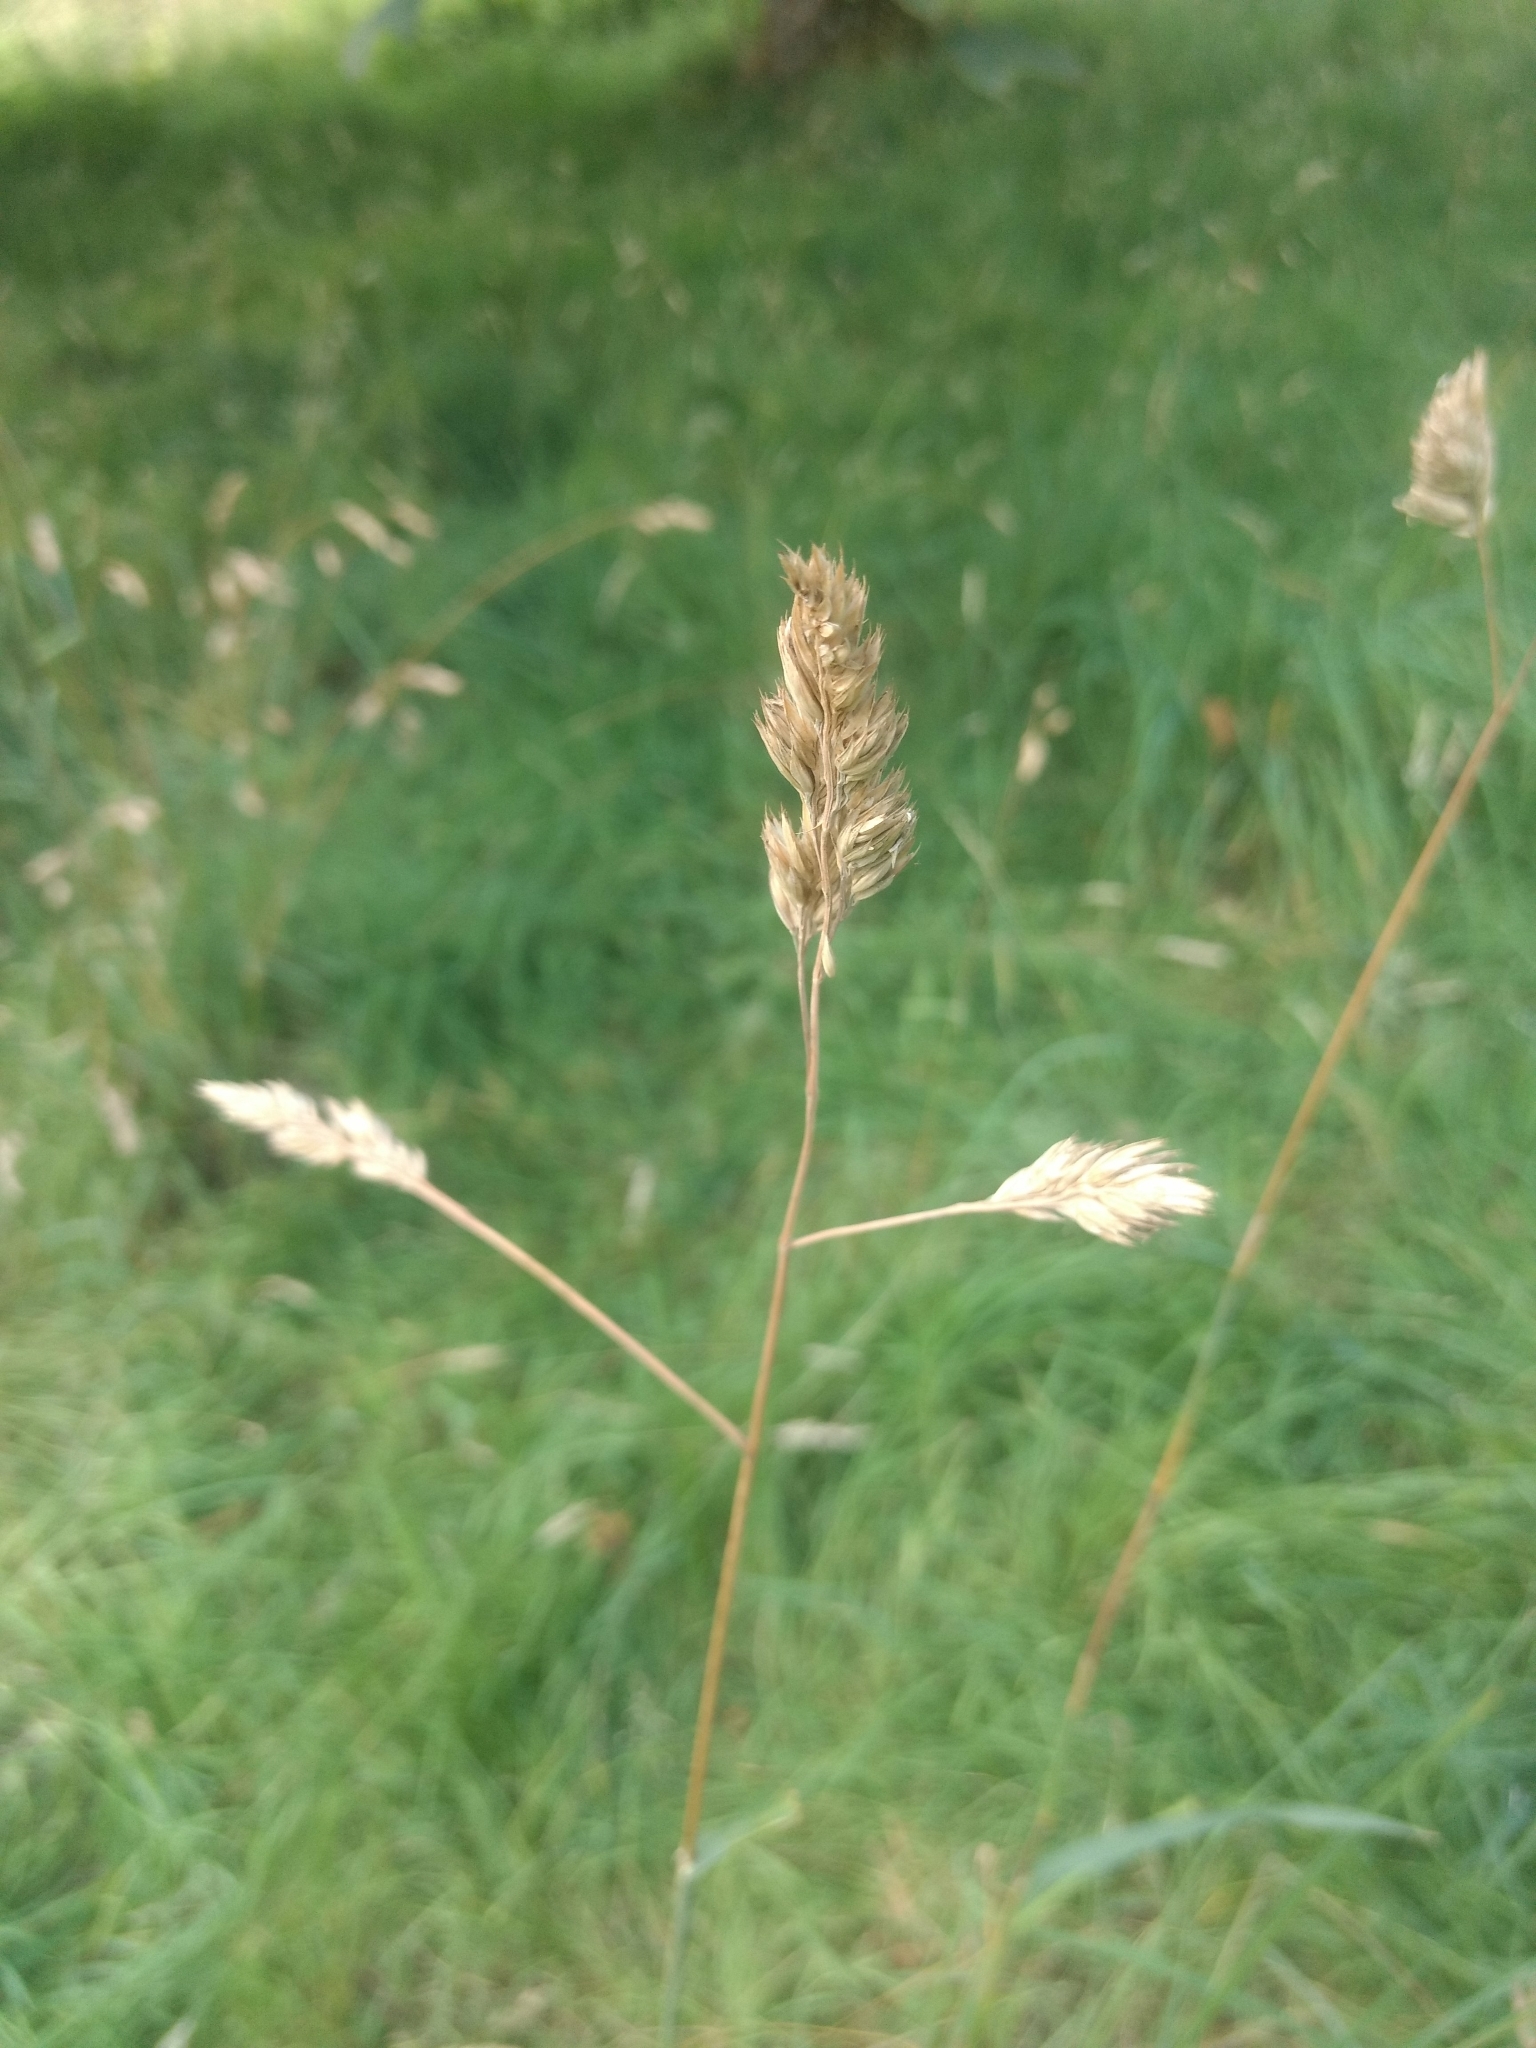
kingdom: Plantae
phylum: Tracheophyta
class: Liliopsida
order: Poales
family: Poaceae
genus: Dactylis
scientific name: Dactylis glomerata
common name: Orchardgrass
